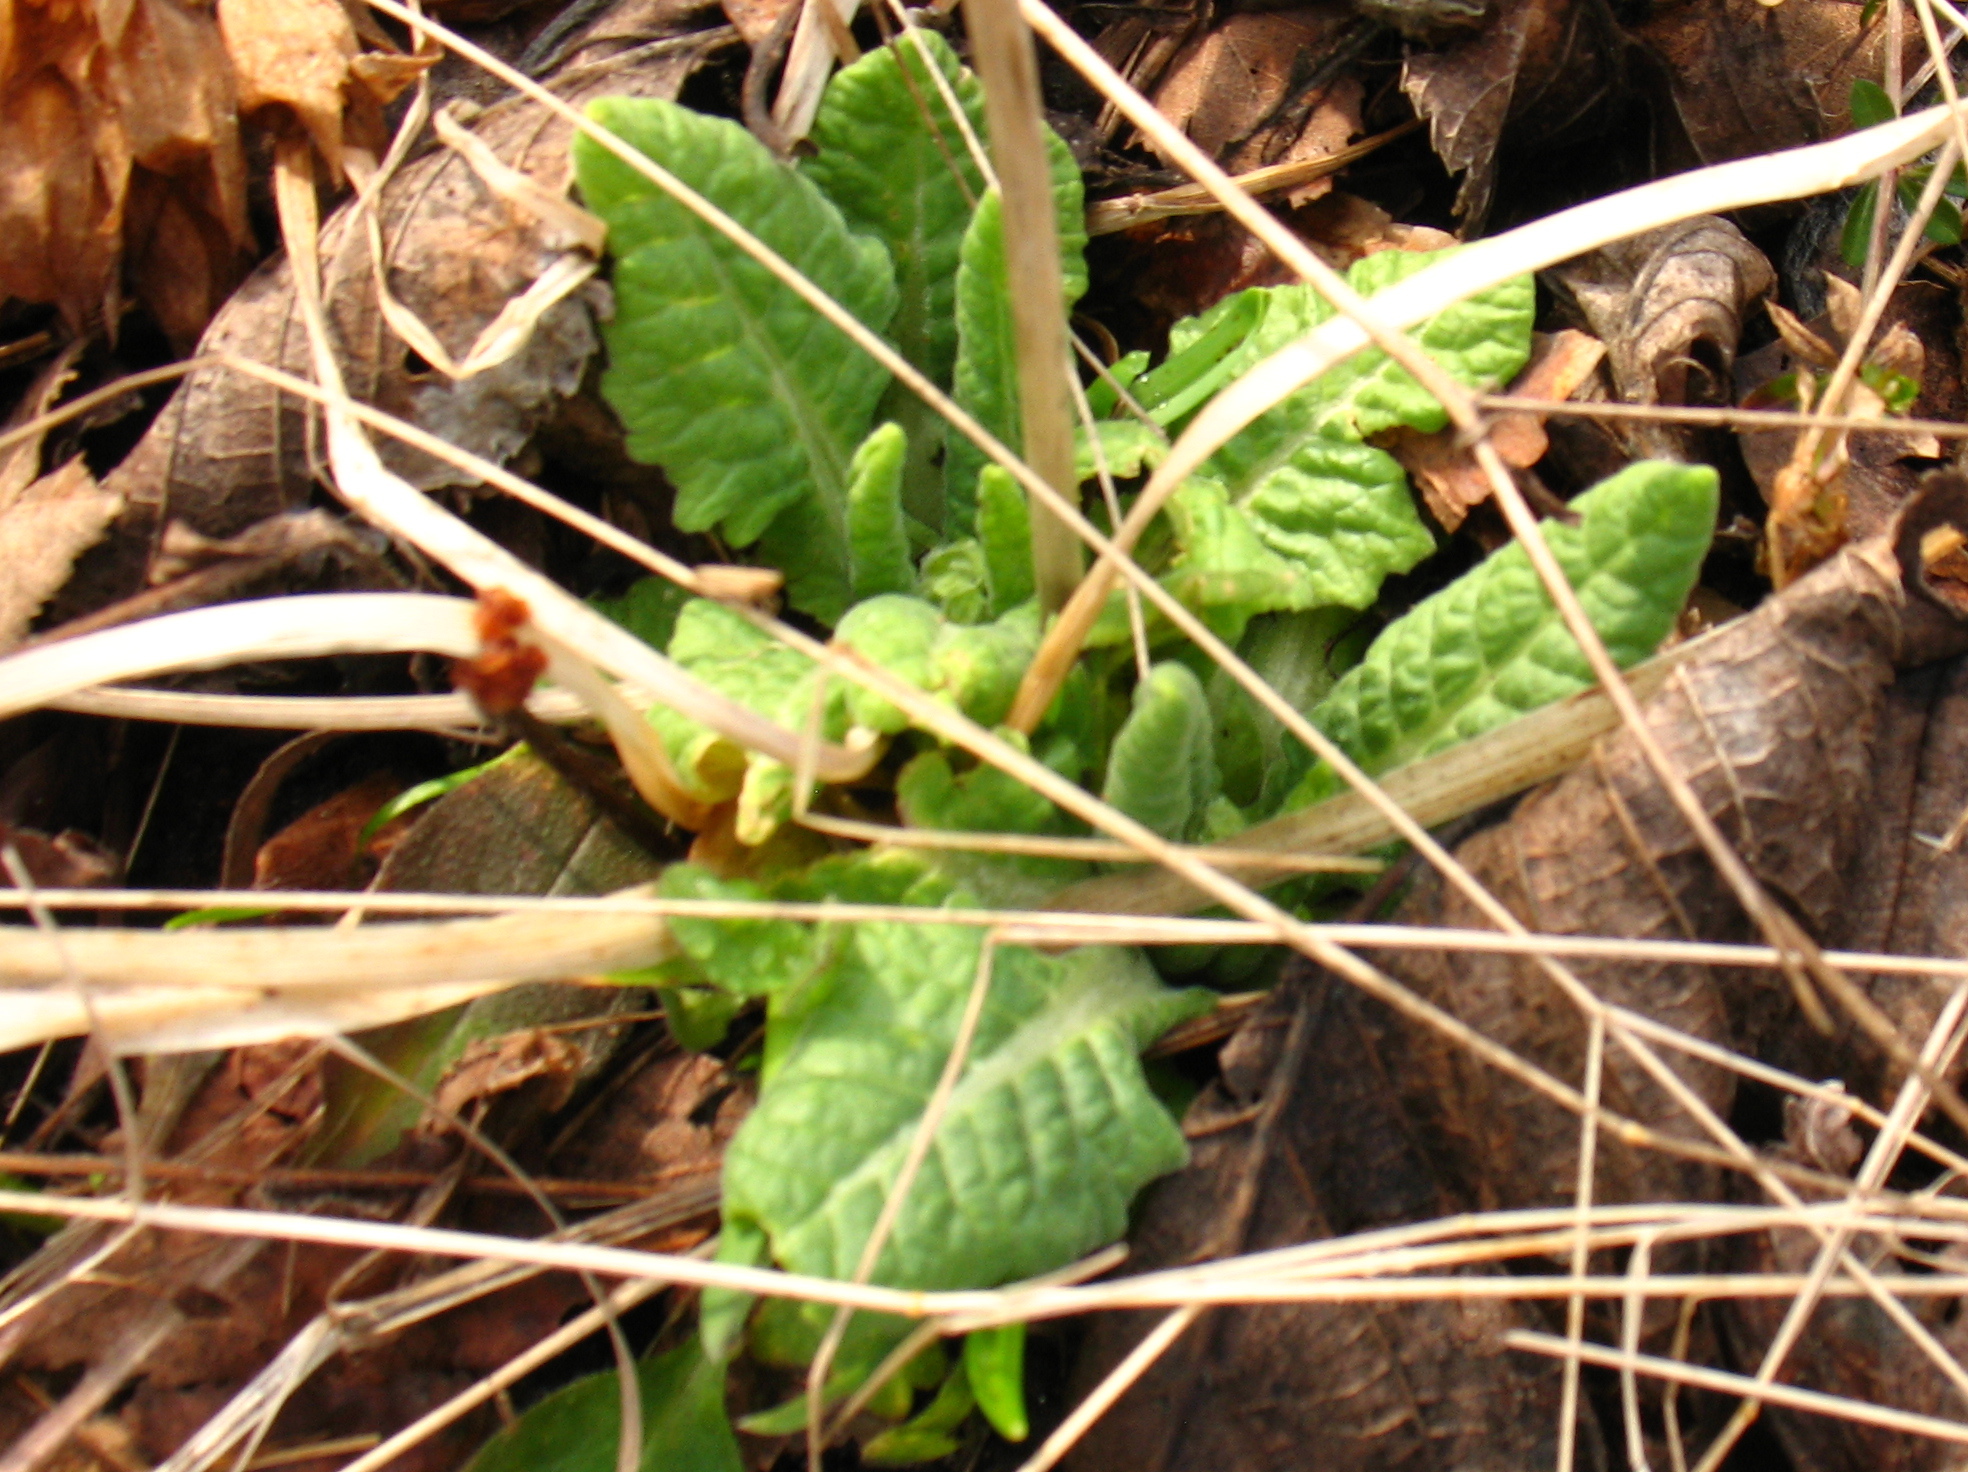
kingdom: Plantae
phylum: Tracheophyta
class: Magnoliopsida
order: Ericales
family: Primulaceae
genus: Primula
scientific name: Primula veris
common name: Cowslip
